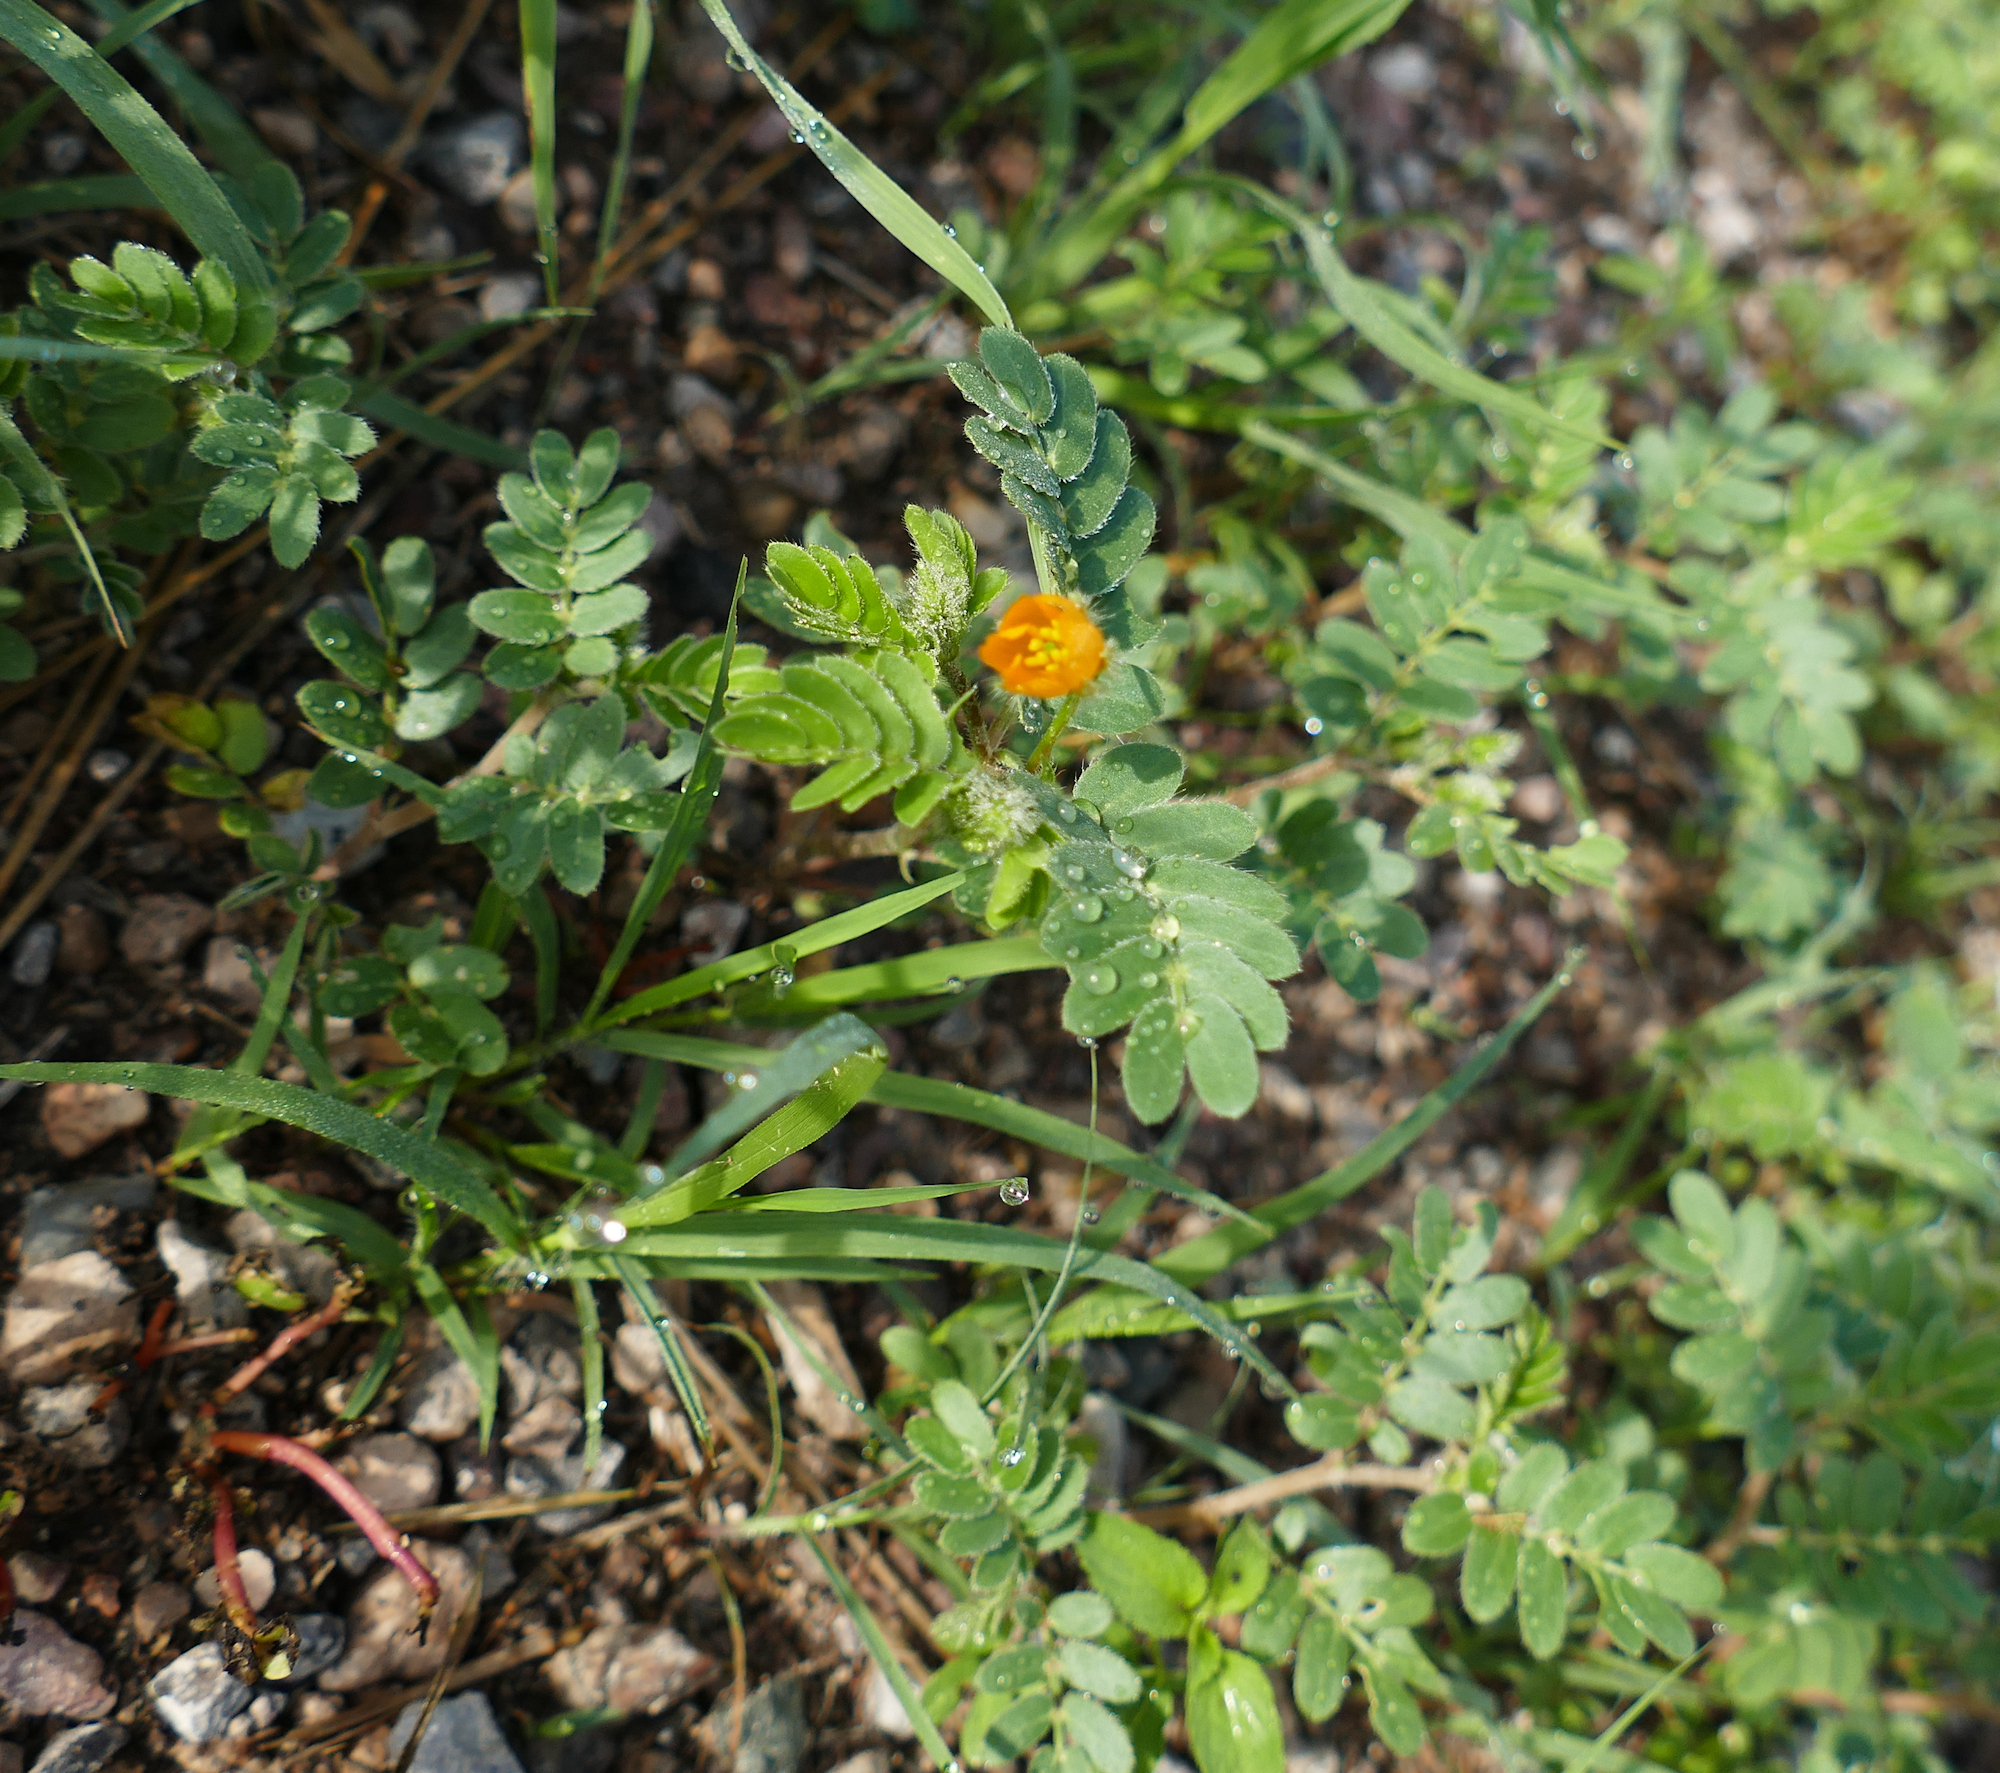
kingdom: Plantae
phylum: Tracheophyta
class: Magnoliopsida
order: Zygophyllales
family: Zygophyllaceae
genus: Kallstroemia
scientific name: Kallstroemia parviflora
